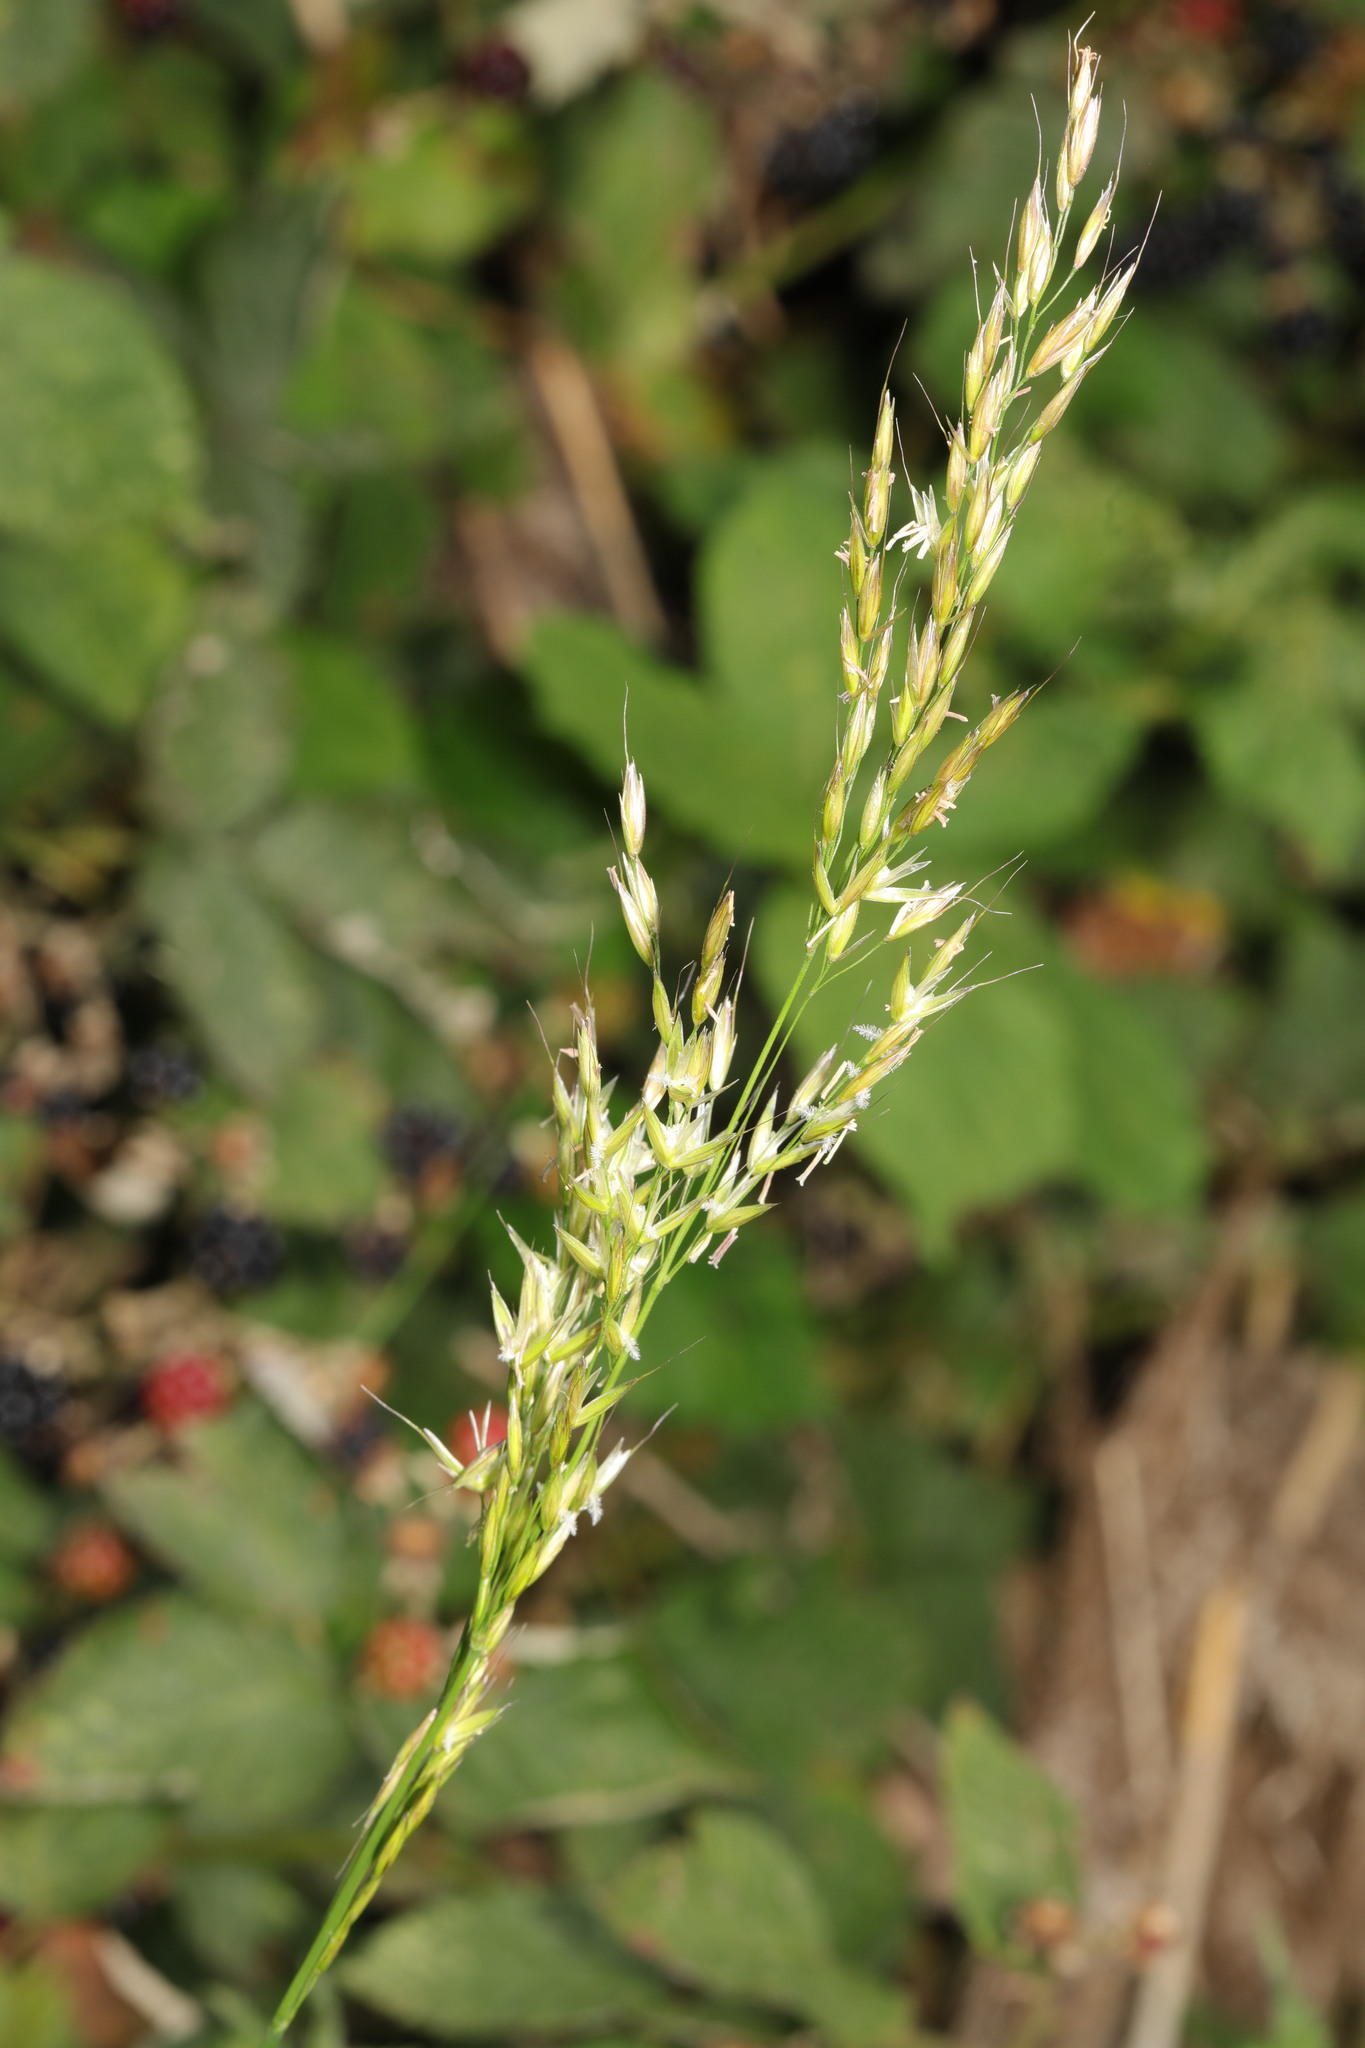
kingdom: Plantae
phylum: Tracheophyta
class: Liliopsida
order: Poales
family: Poaceae
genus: Arrhenatherum
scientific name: Arrhenatherum elatius
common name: Tall oatgrass
